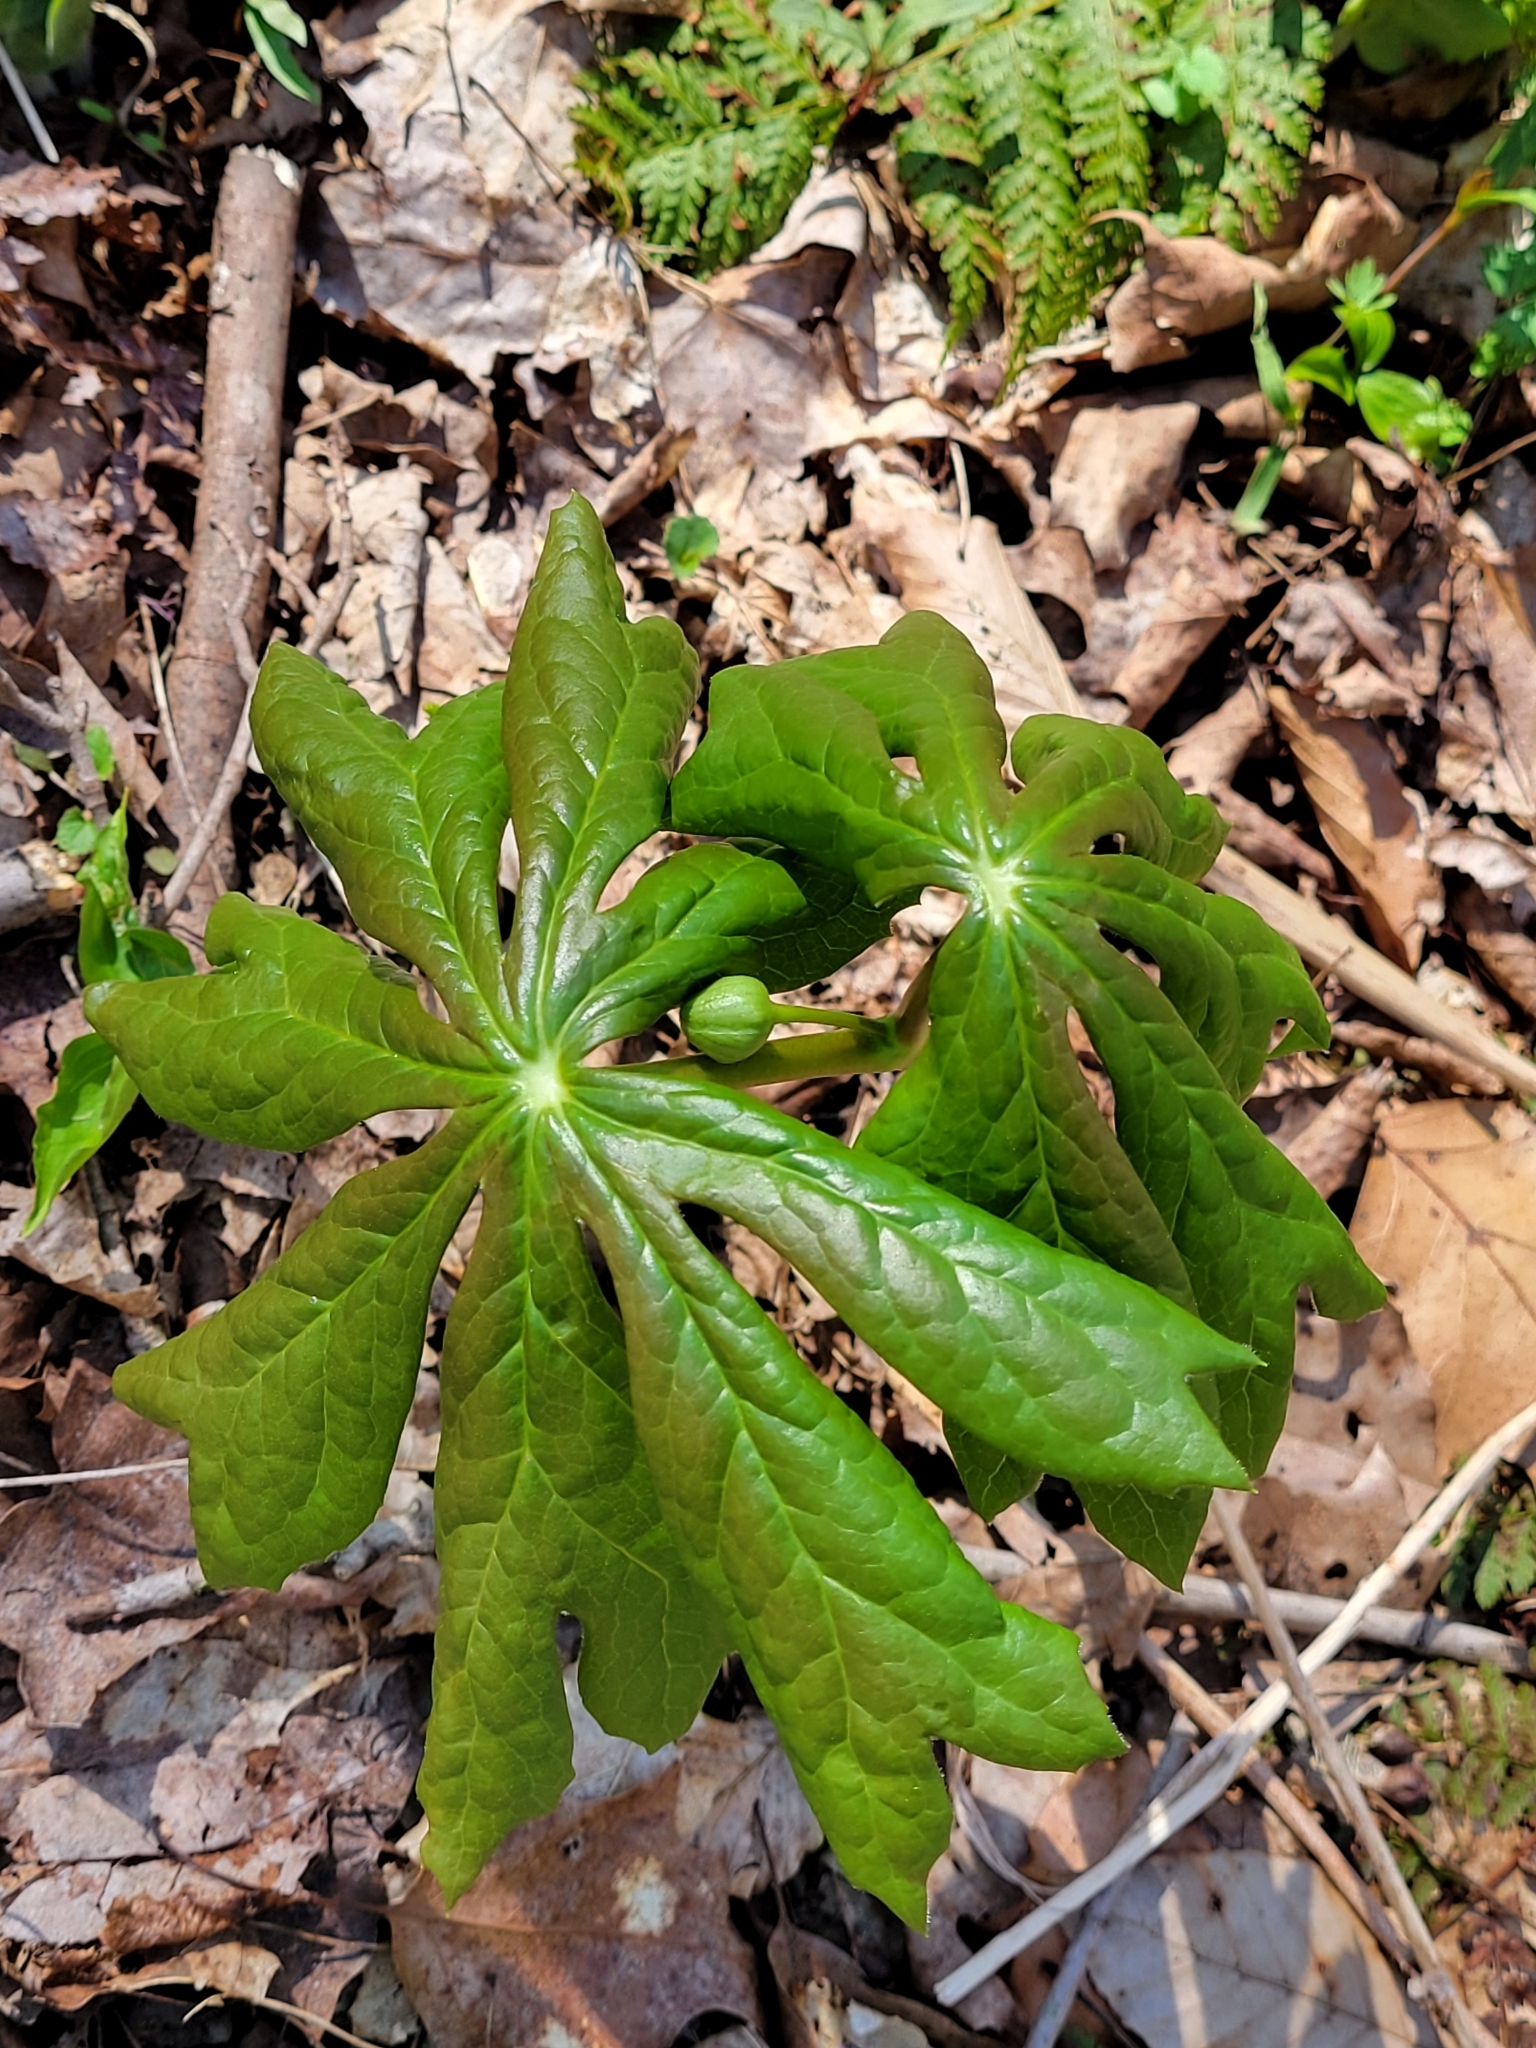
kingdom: Plantae
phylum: Tracheophyta
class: Magnoliopsida
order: Ranunculales
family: Berberidaceae
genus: Podophyllum
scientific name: Podophyllum peltatum
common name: Wild mandrake
